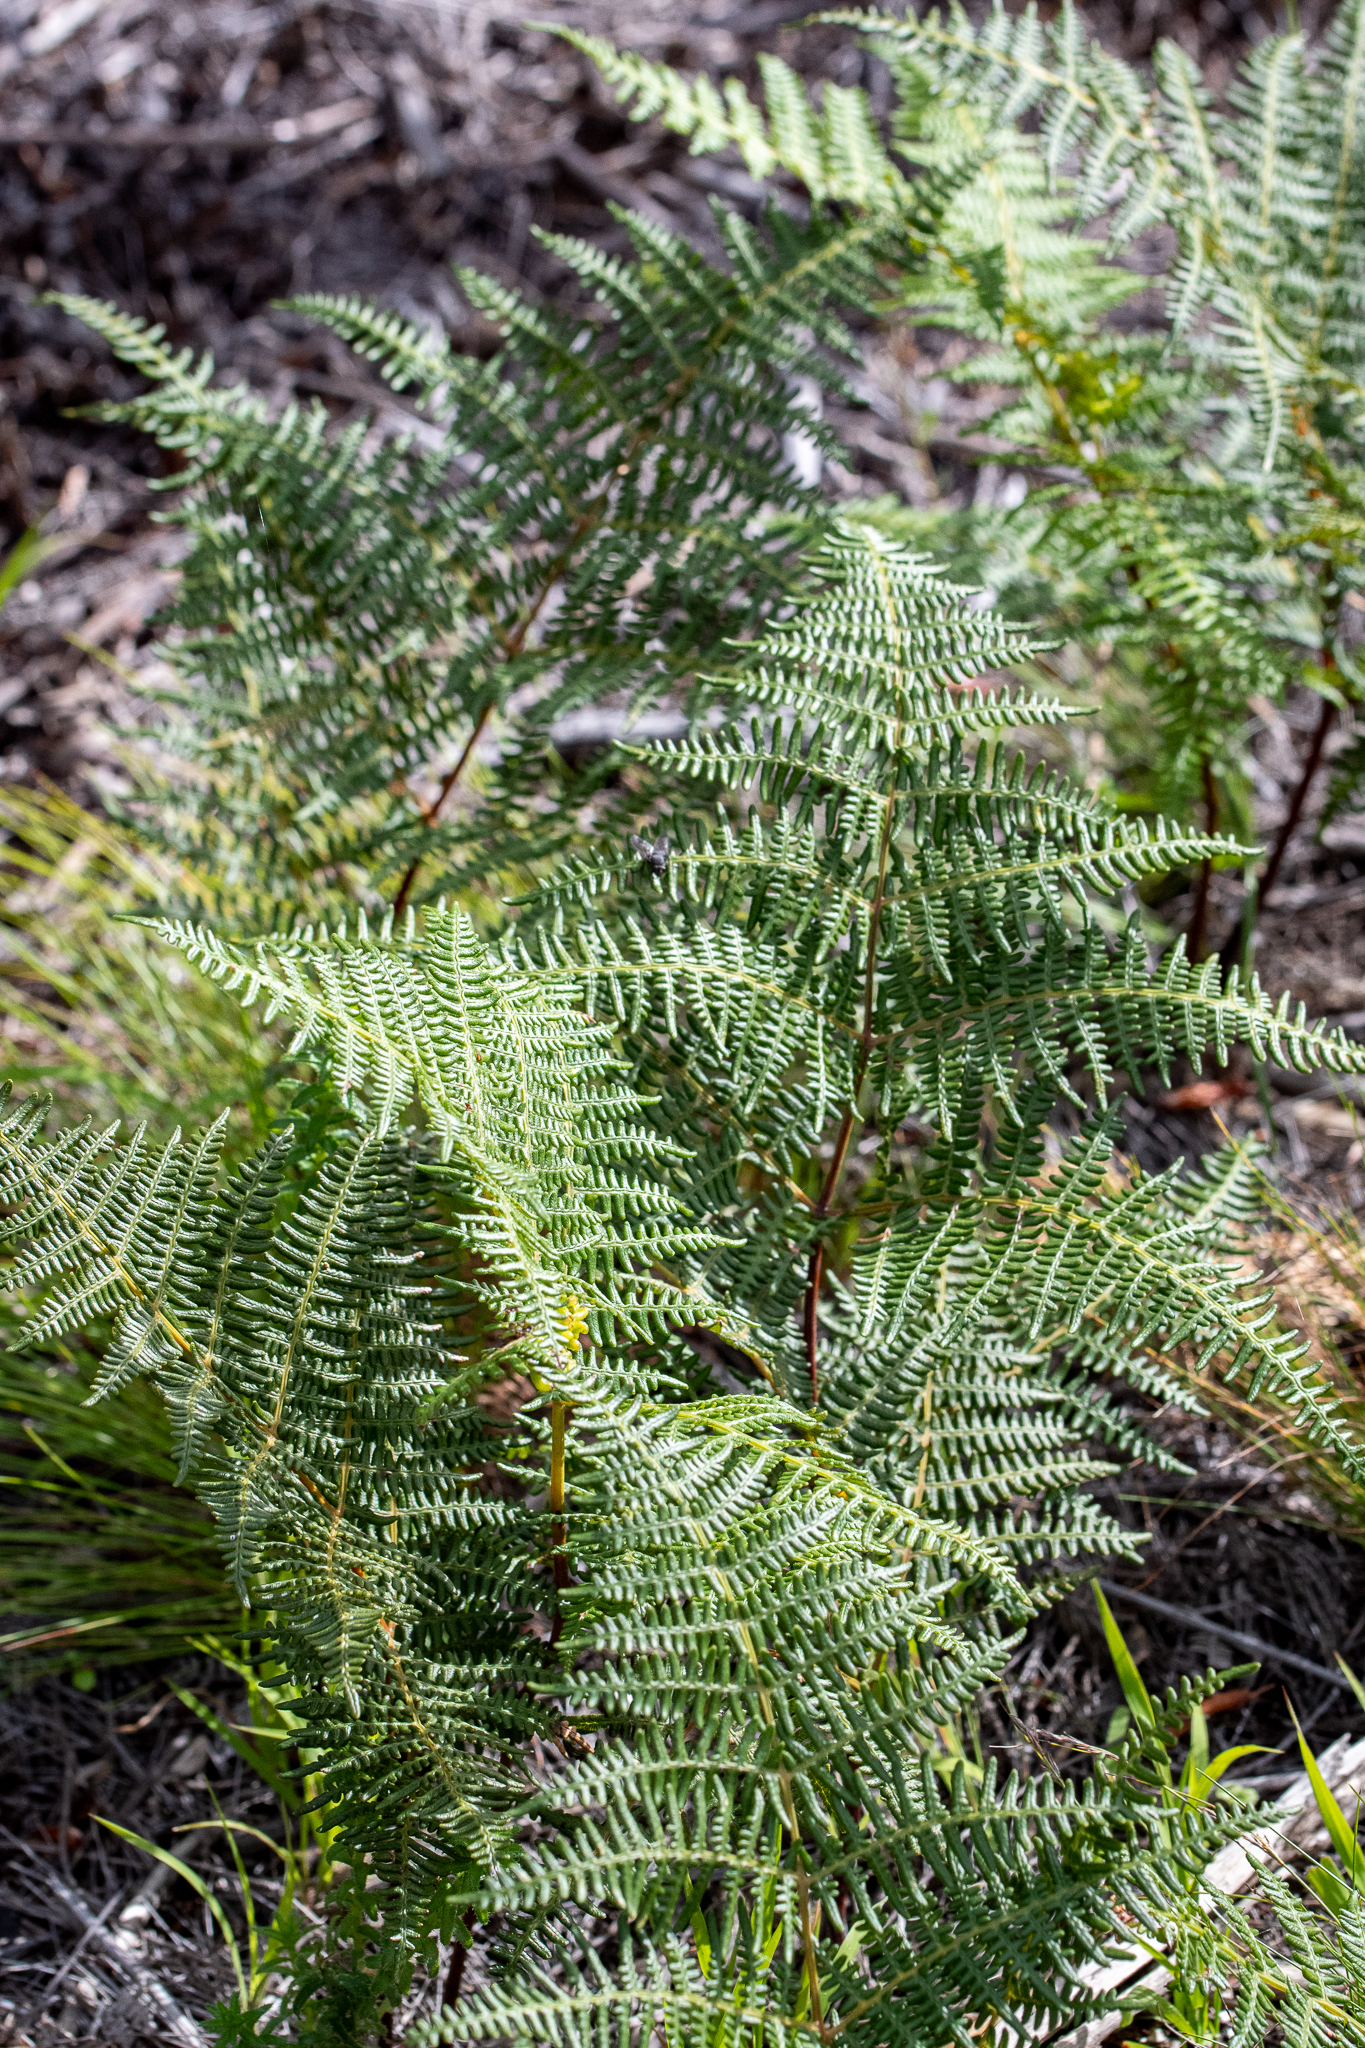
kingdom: Plantae
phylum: Tracheophyta
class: Polypodiopsida
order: Polypodiales
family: Dennstaedtiaceae
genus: Pteridium
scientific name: Pteridium aquilinum
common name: Bracken
